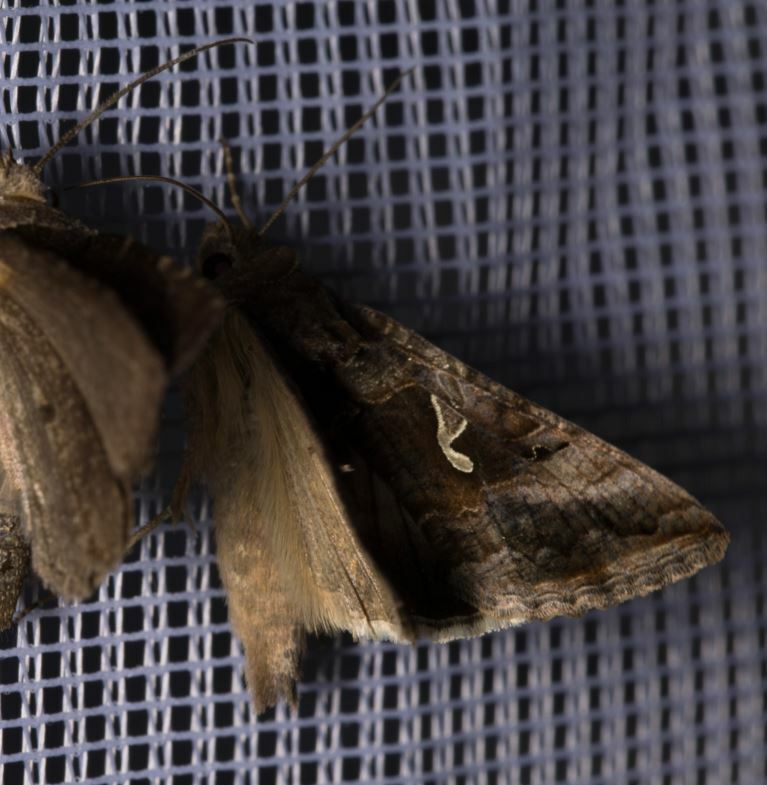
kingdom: Animalia
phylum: Arthropoda
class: Insecta
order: Lepidoptera
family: Noctuidae
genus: Autographa
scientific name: Autographa gamma
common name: Silver y
